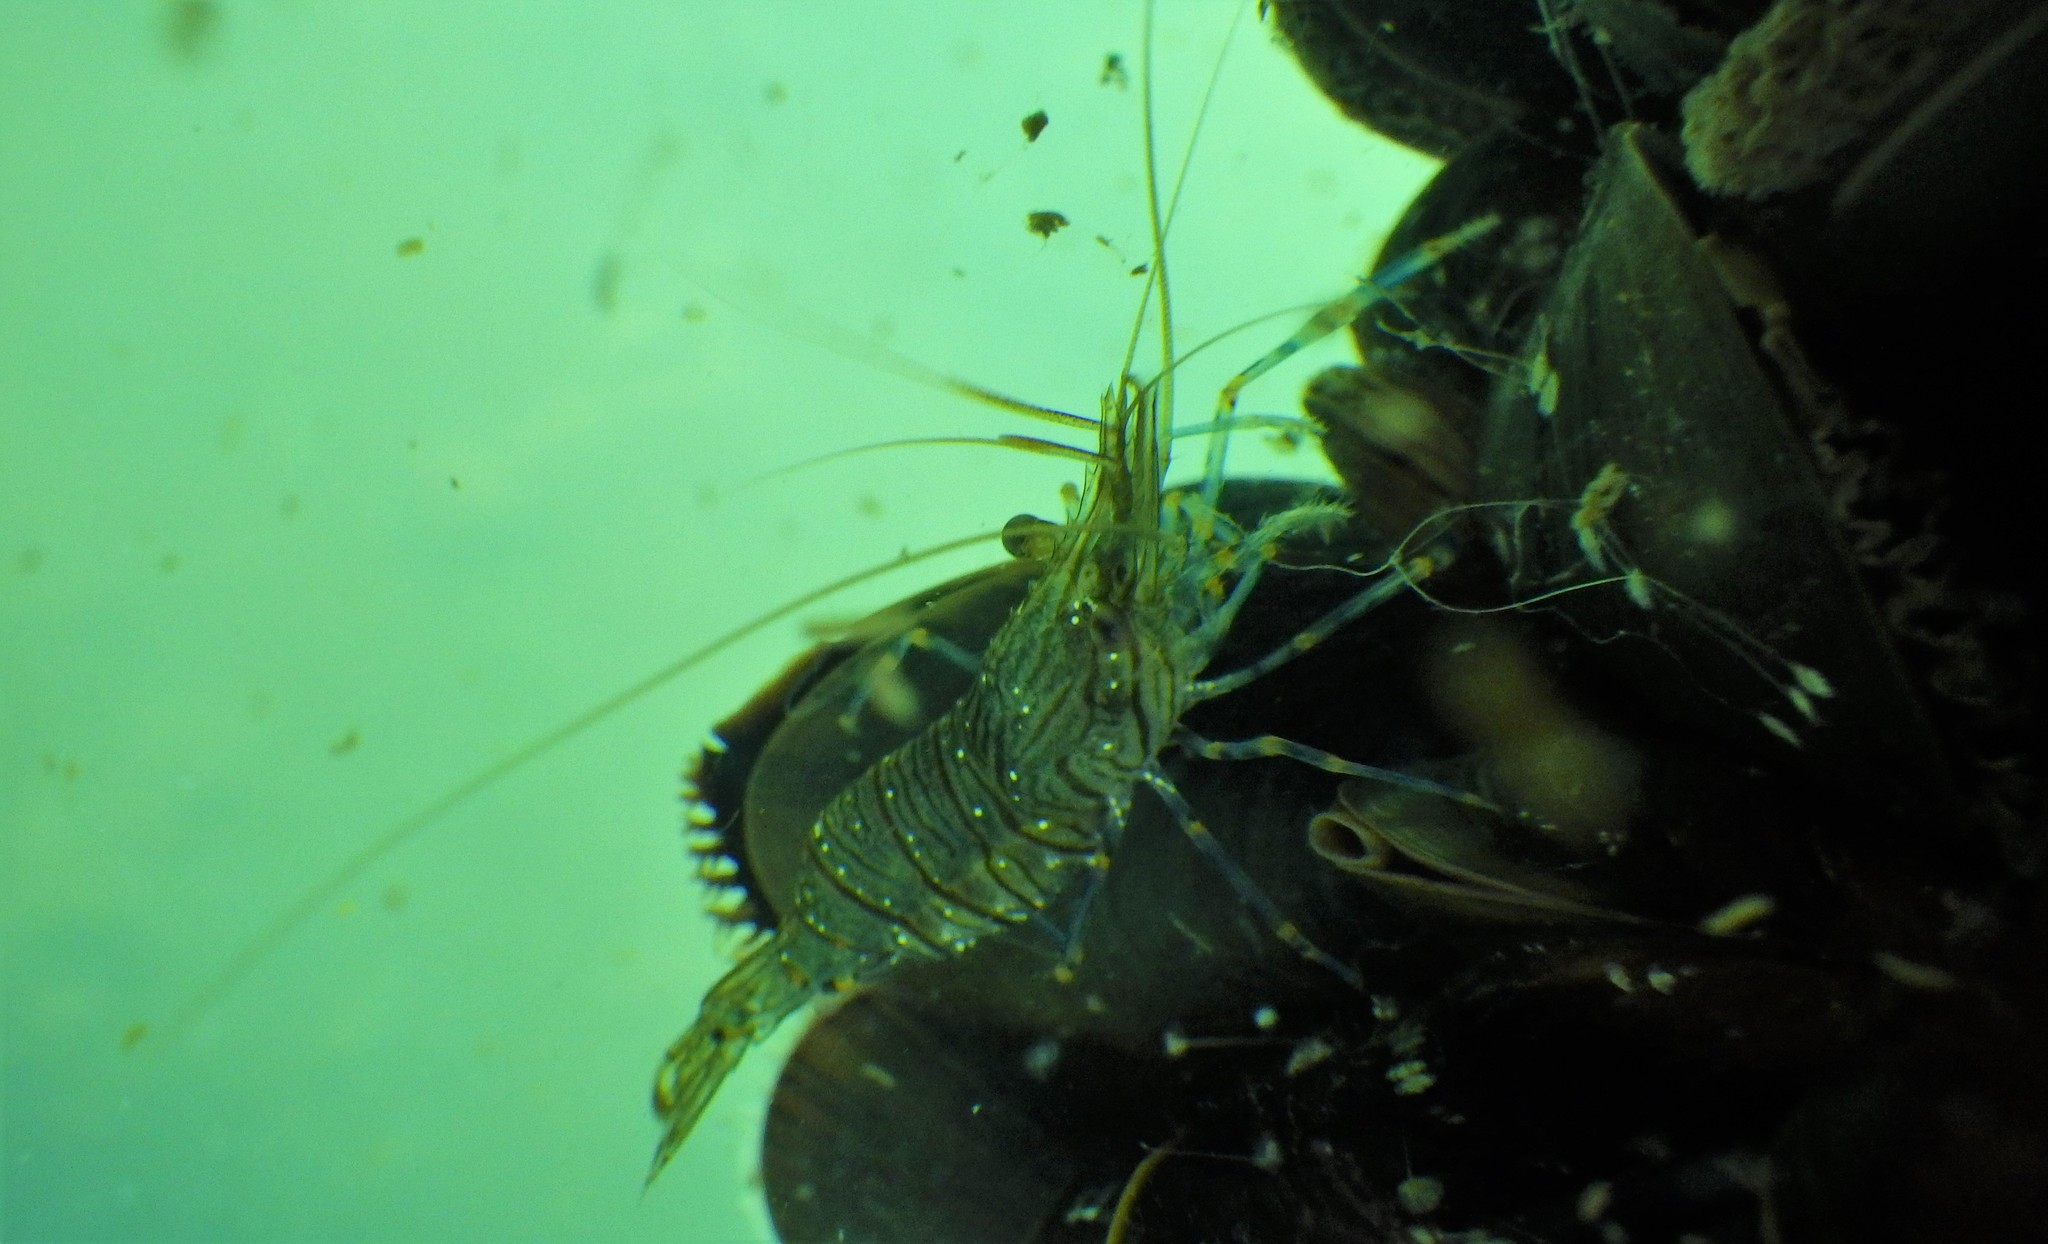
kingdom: Animalia
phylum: Arthropoda
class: Malacostraca
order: Decapoda
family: Palaemonidae
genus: Palaemon
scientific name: Palaemon elegans
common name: Grass prawm
